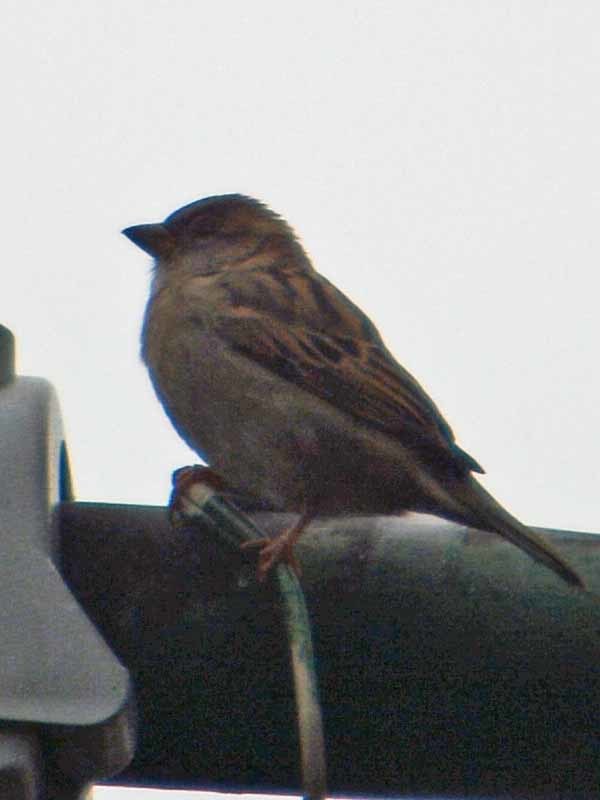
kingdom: Animalia
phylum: Chordata
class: Aves
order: Passeriformes
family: Passeridae
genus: Passer
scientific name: Passer domesticus
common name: House sparrow
